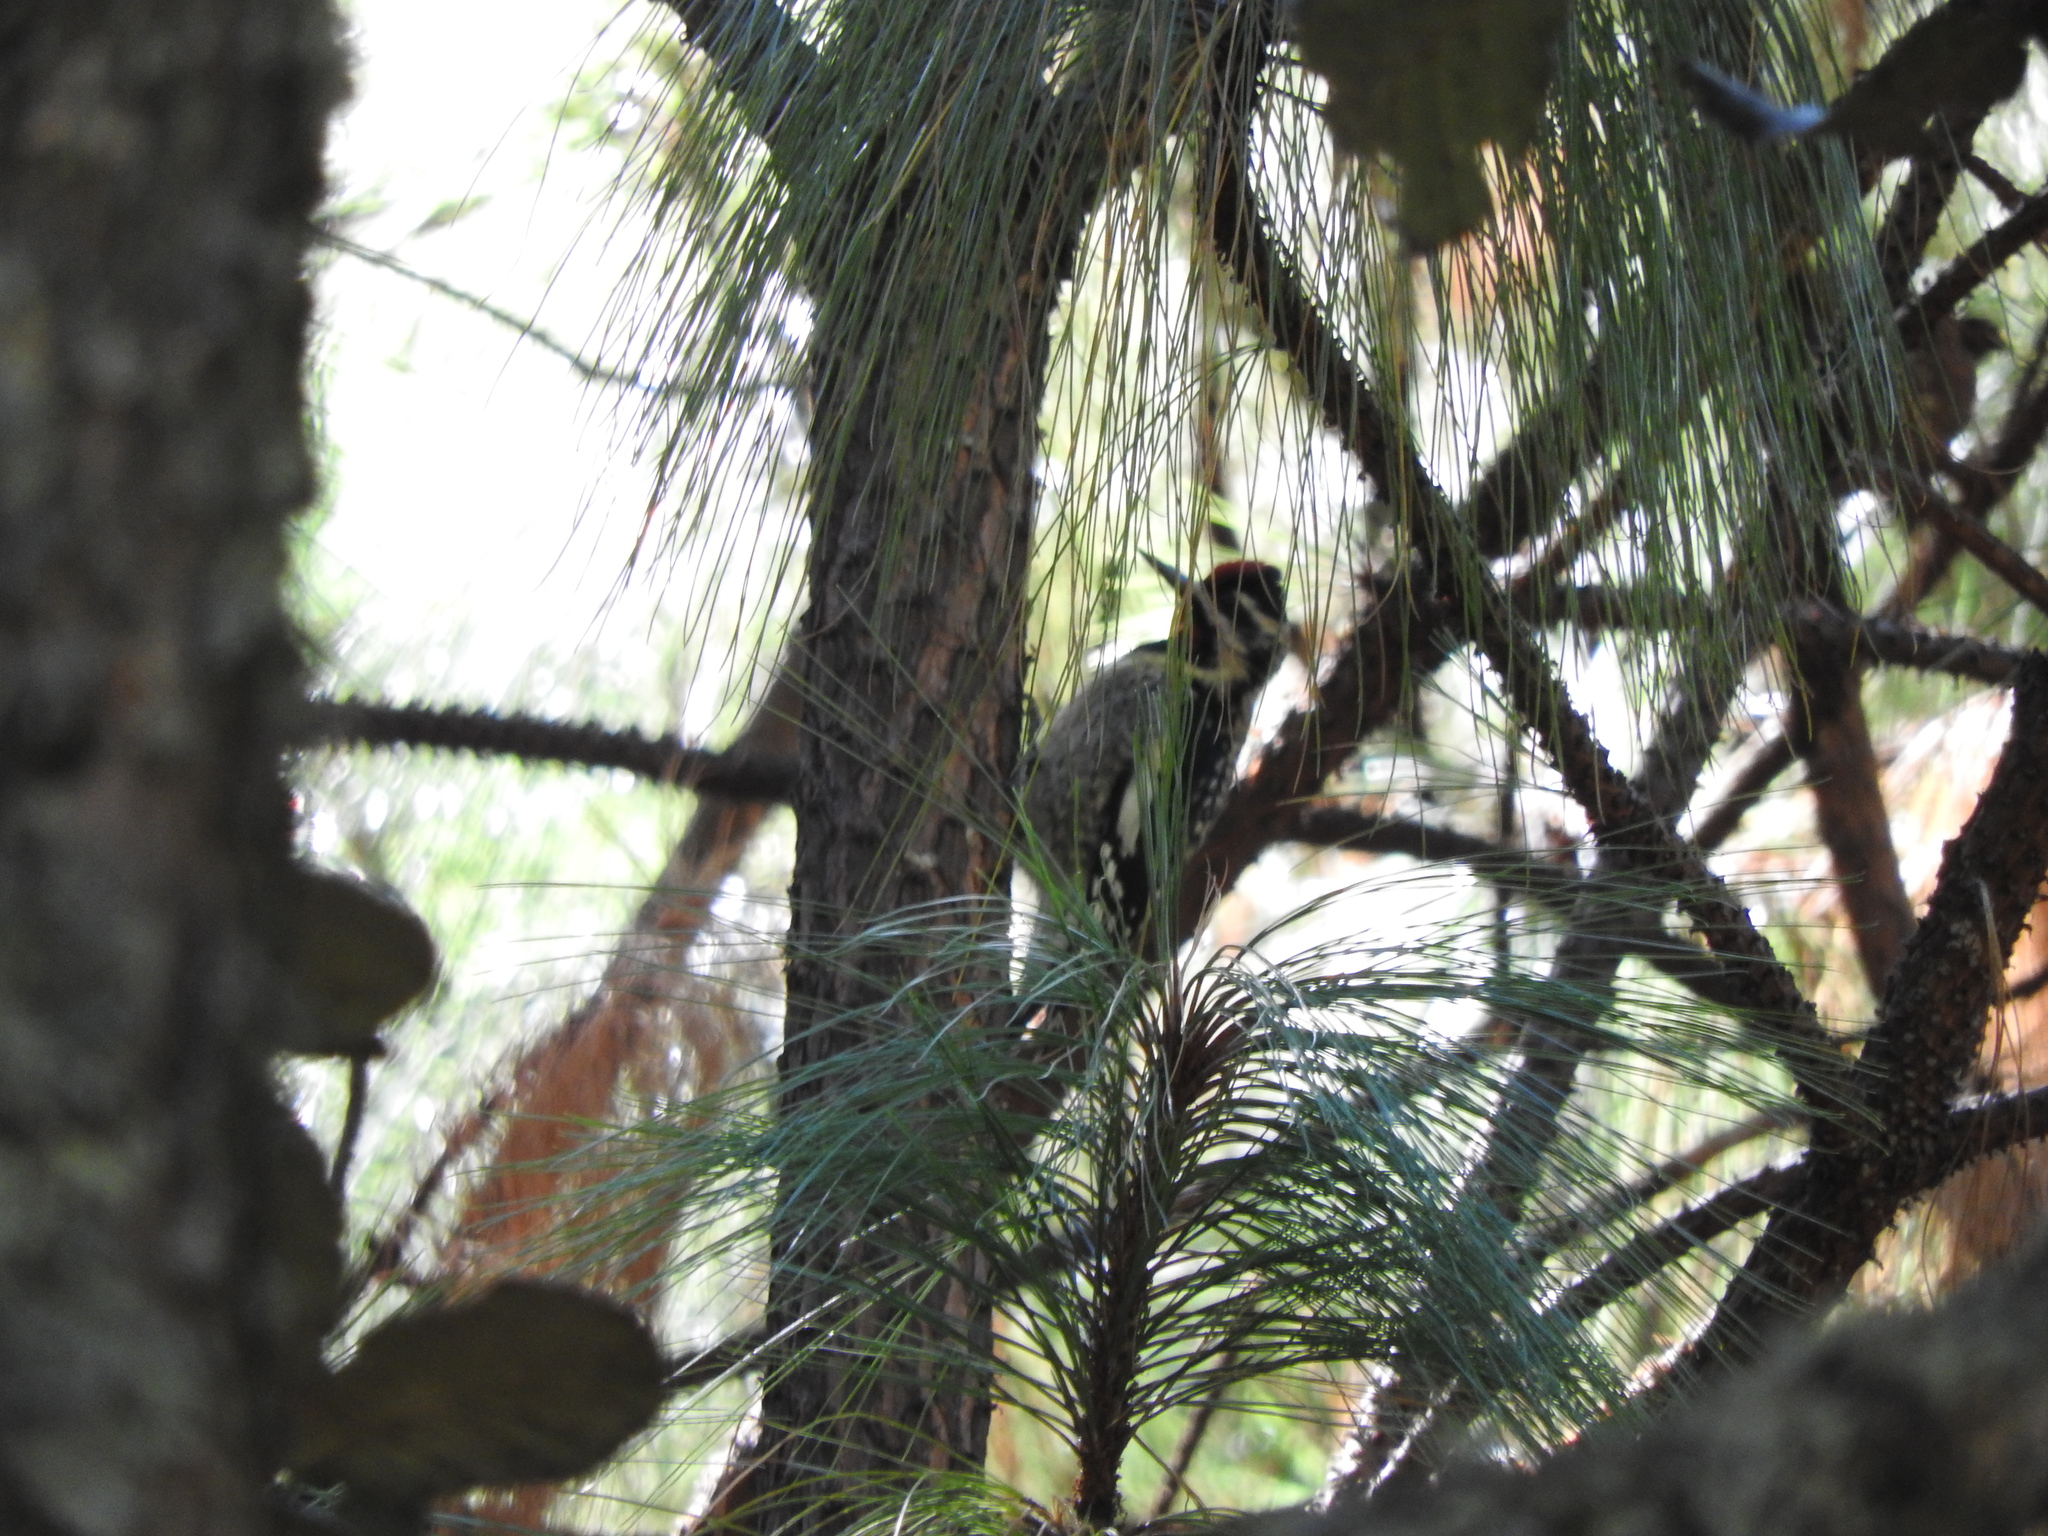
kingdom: Animalia
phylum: Chordata
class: Aves
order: Piciformes
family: Picidae
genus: Sphyrapicus
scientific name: Sphyrapicus varius
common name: Yellow-bellied sapsucker
